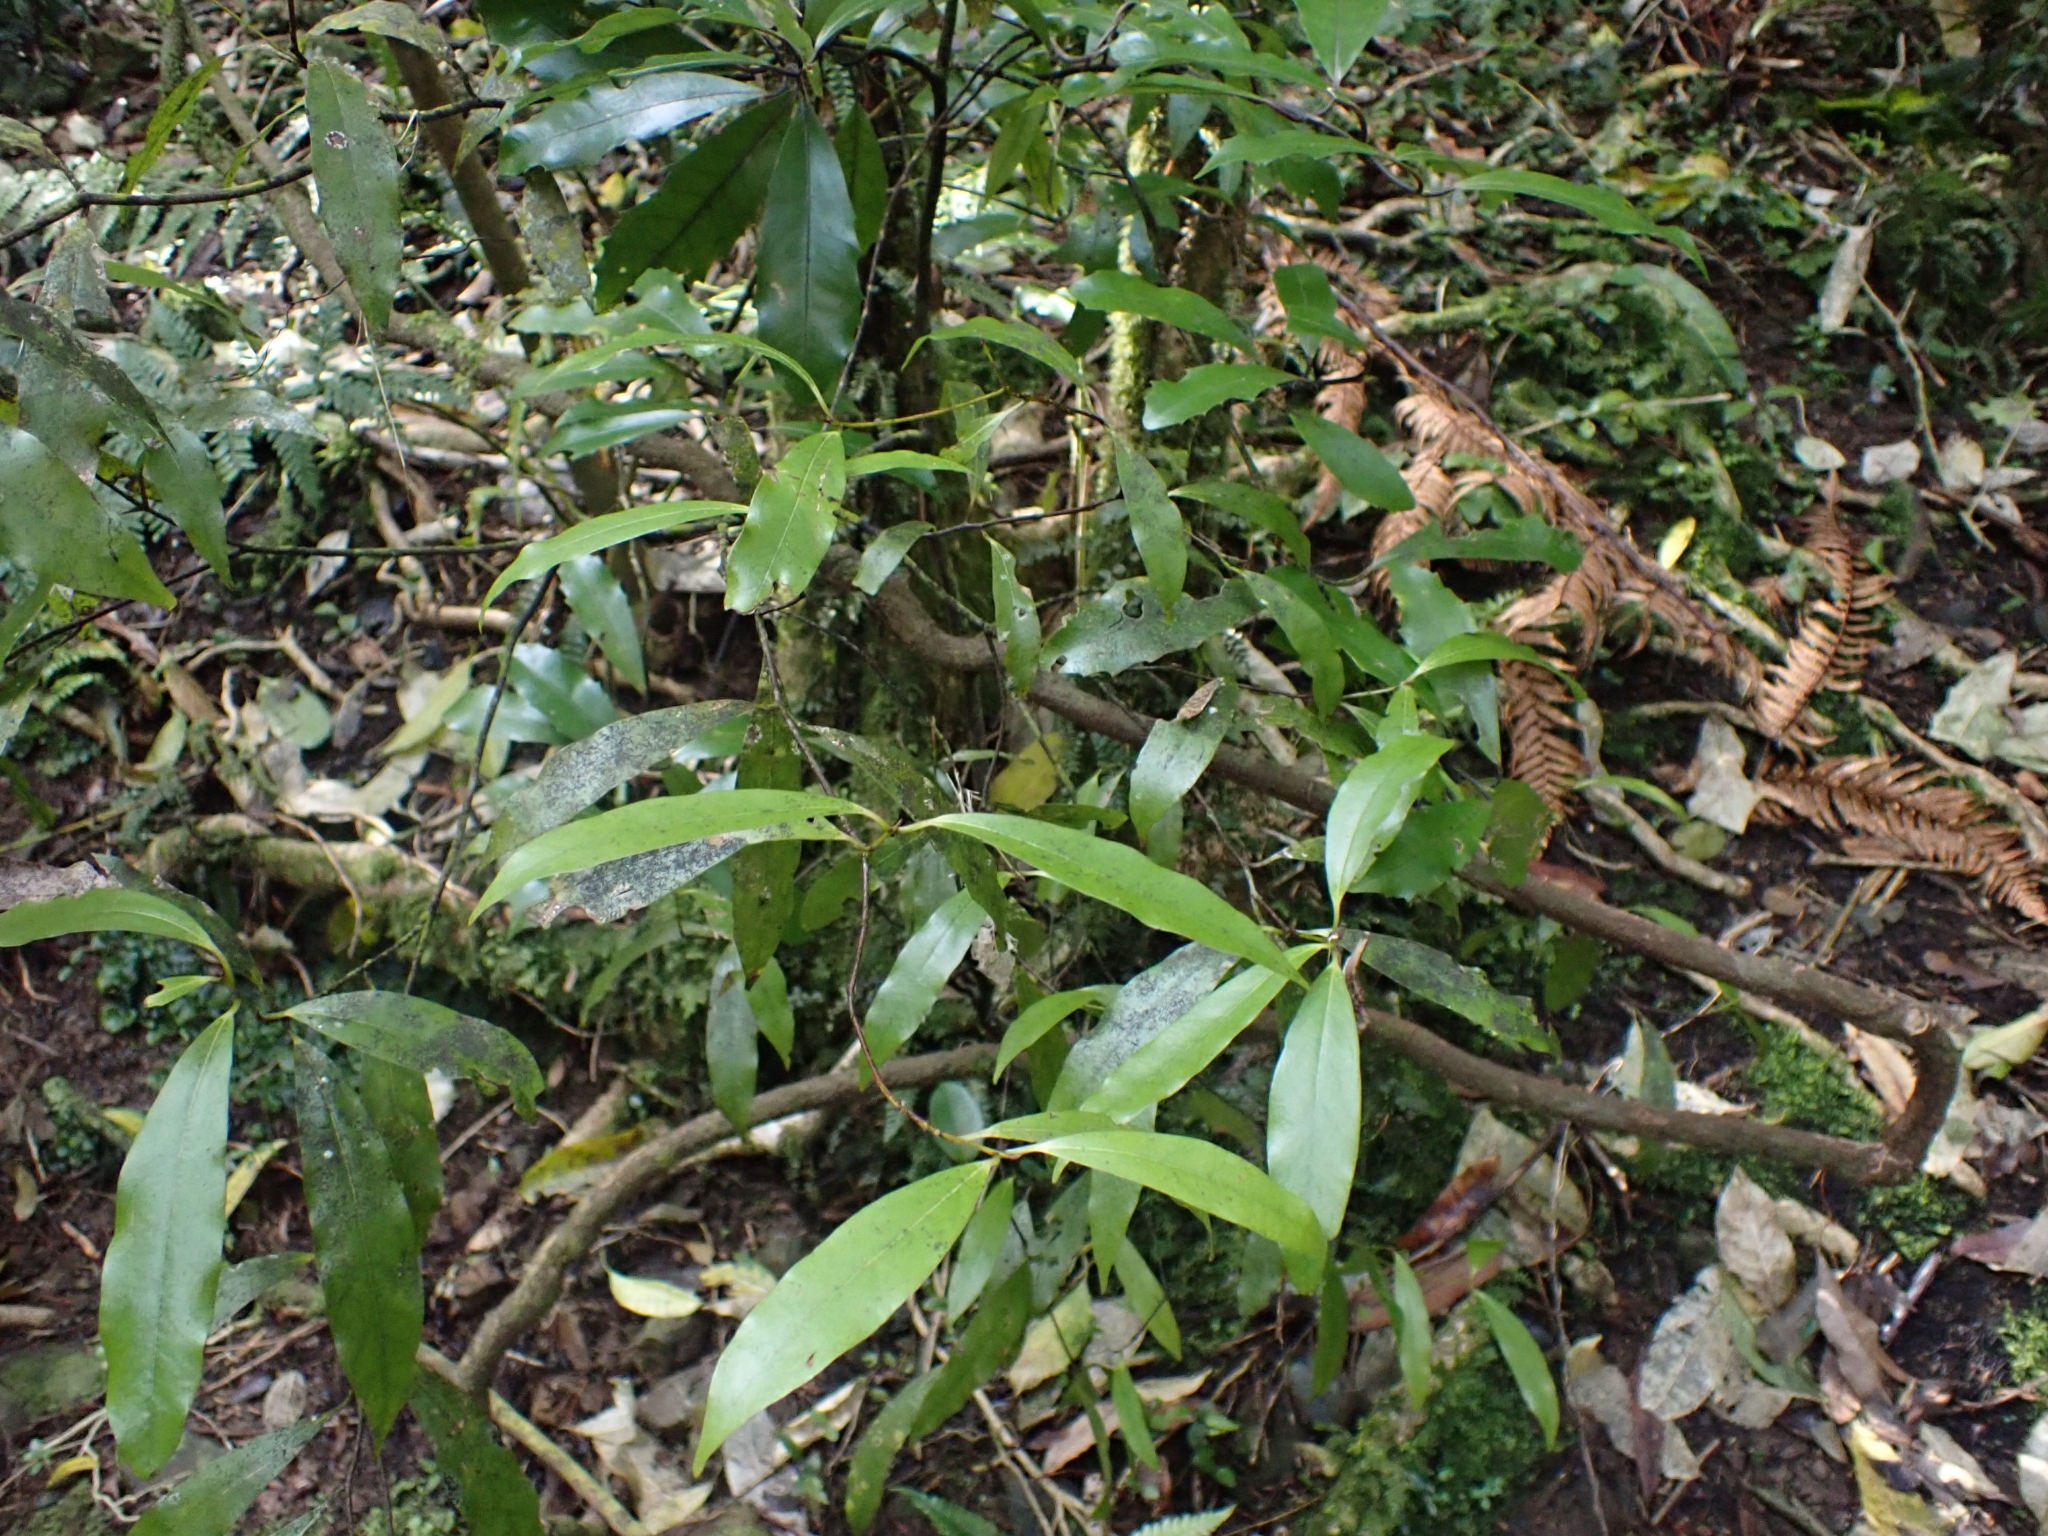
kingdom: Plantae
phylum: Tracheophyta
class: Magnoliopsida
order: Laurales
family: Lauraceae
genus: Beilschmiedia
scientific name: Beilschmiedia tawa
